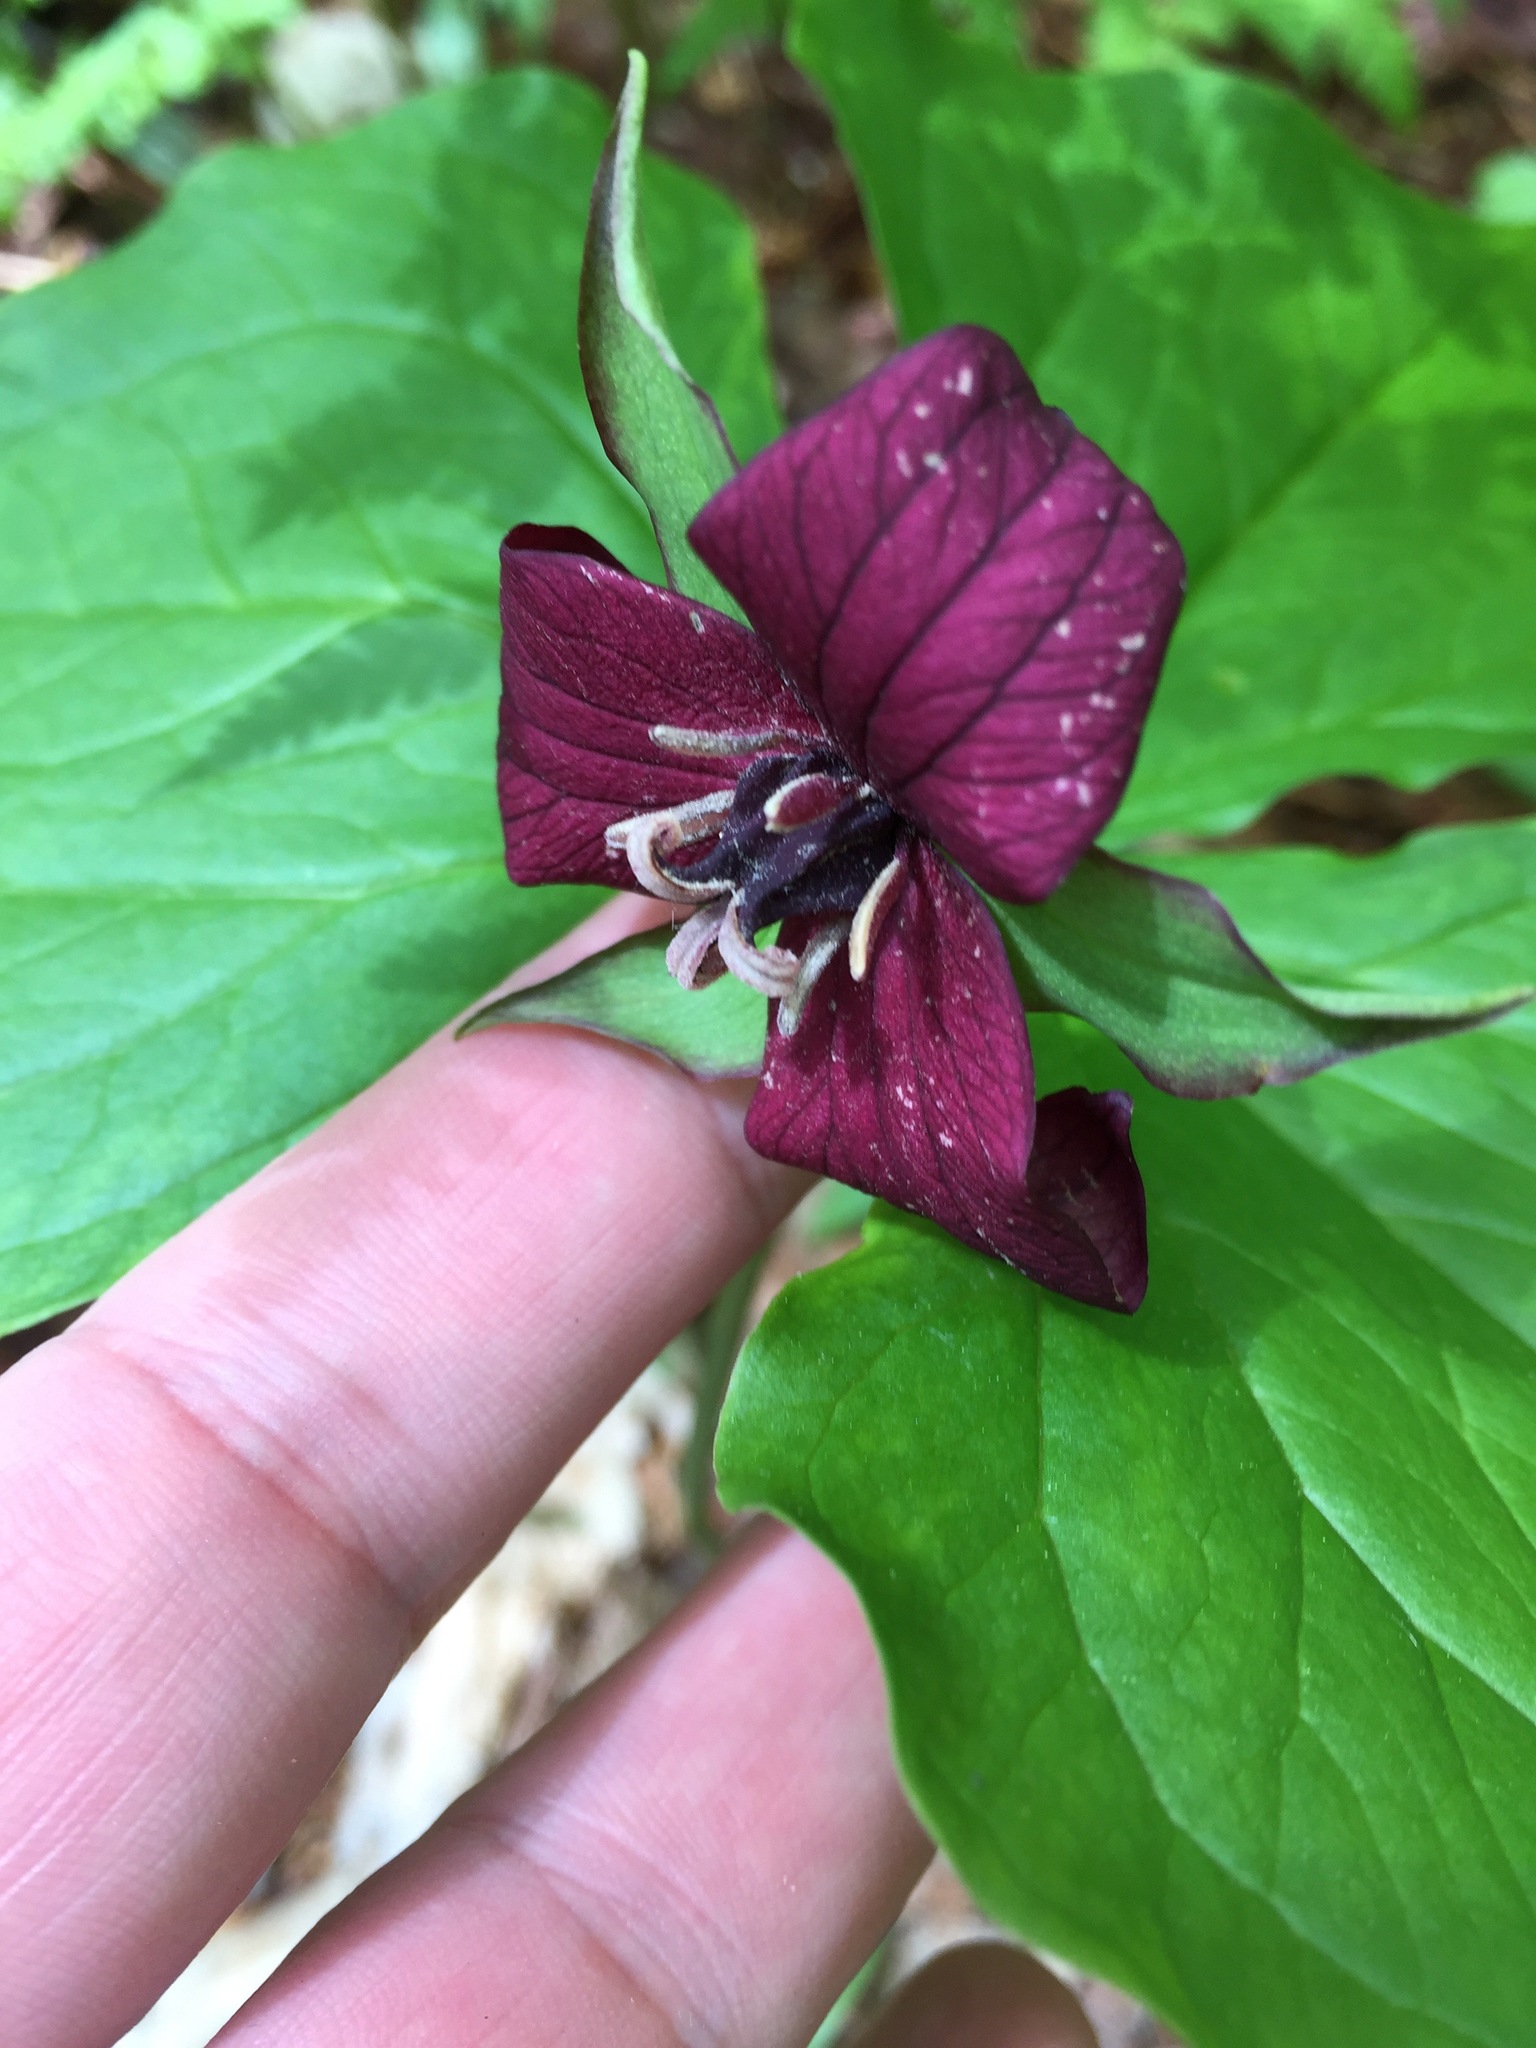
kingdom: Plantae
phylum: Tracheophyta
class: Liliopsida
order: Liliales
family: Melanthiaceae
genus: Trillium
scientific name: Trillium erectum
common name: Purple trillium
